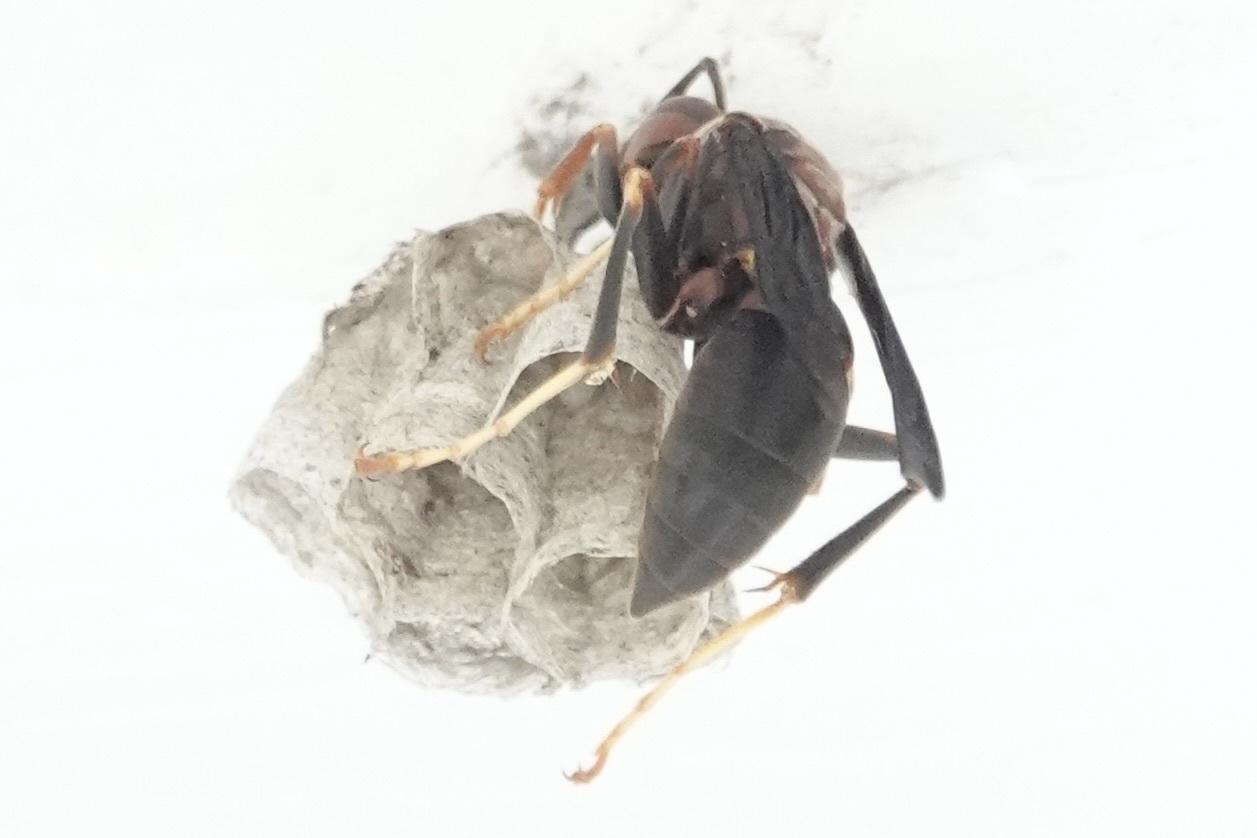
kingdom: Animalia
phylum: Arthropoda
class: Insecta
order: Hymenoptera
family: Eumenidae
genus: Polistes
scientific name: Polistes metricus
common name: Metric paper wasp
